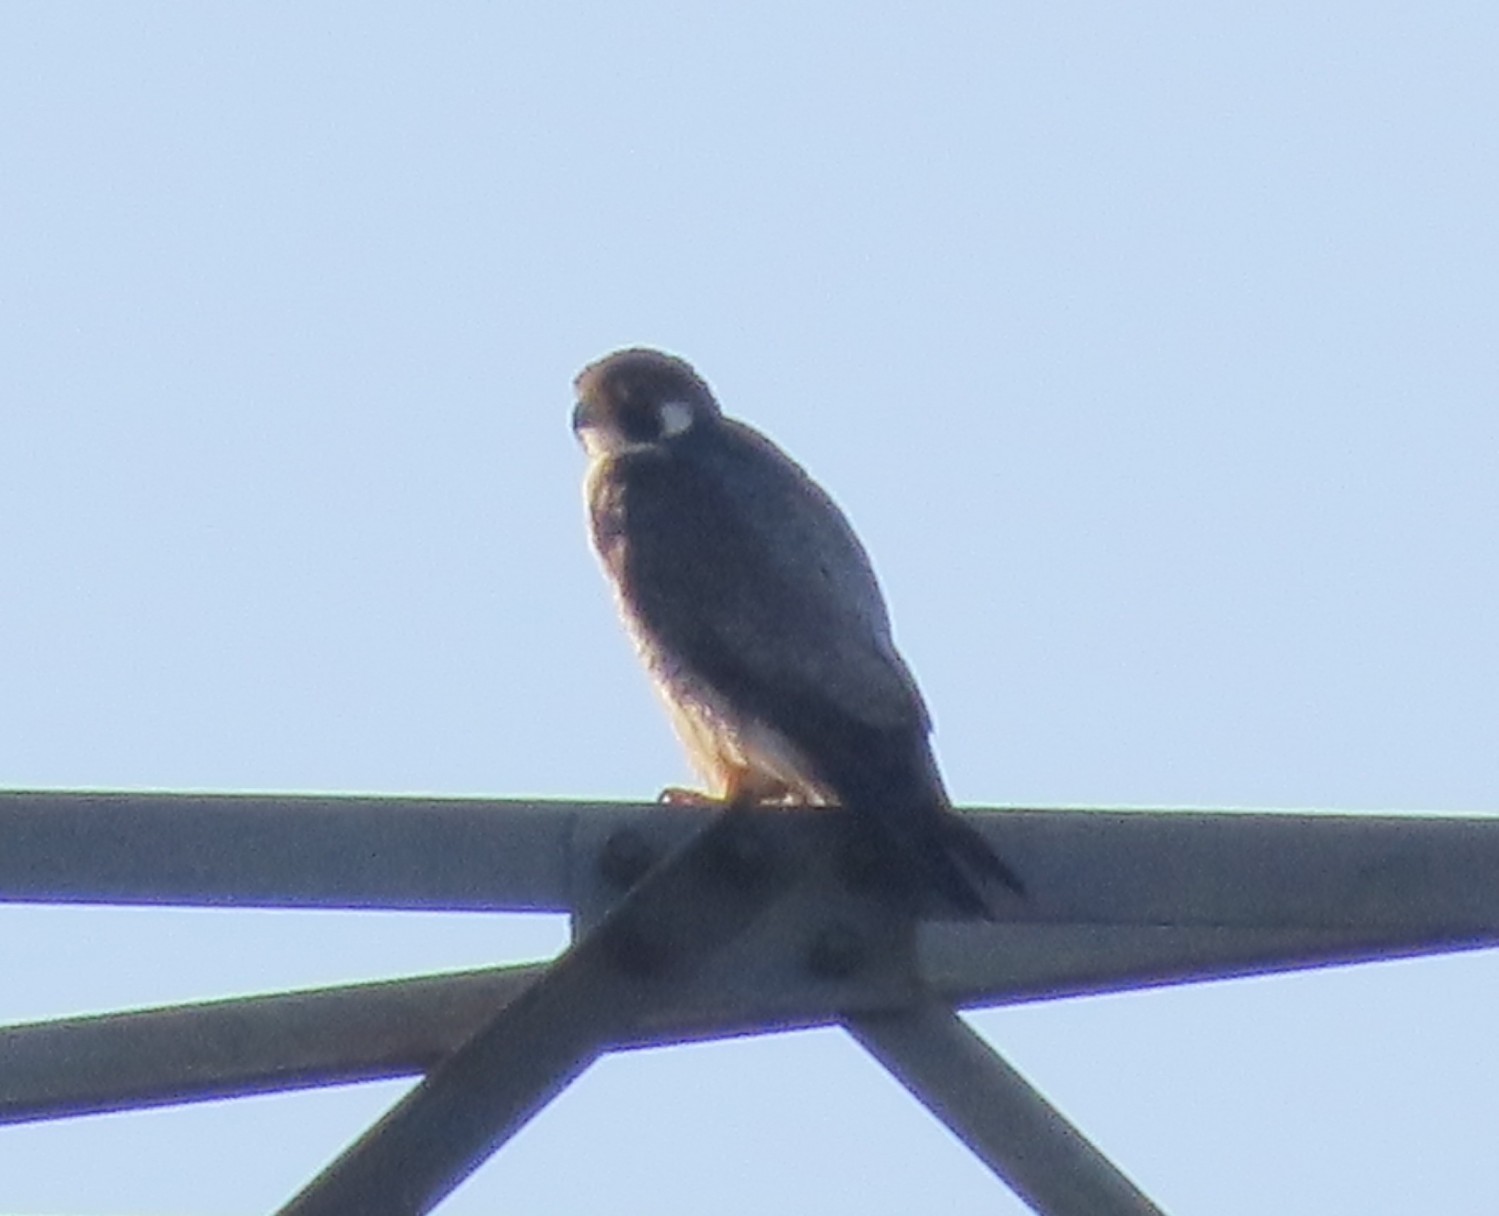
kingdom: Animalia
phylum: Chordata
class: Aves
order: Falconiformes
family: Falconidae
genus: Falco
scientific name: Falco peregrinus
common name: Peregrine falcon
